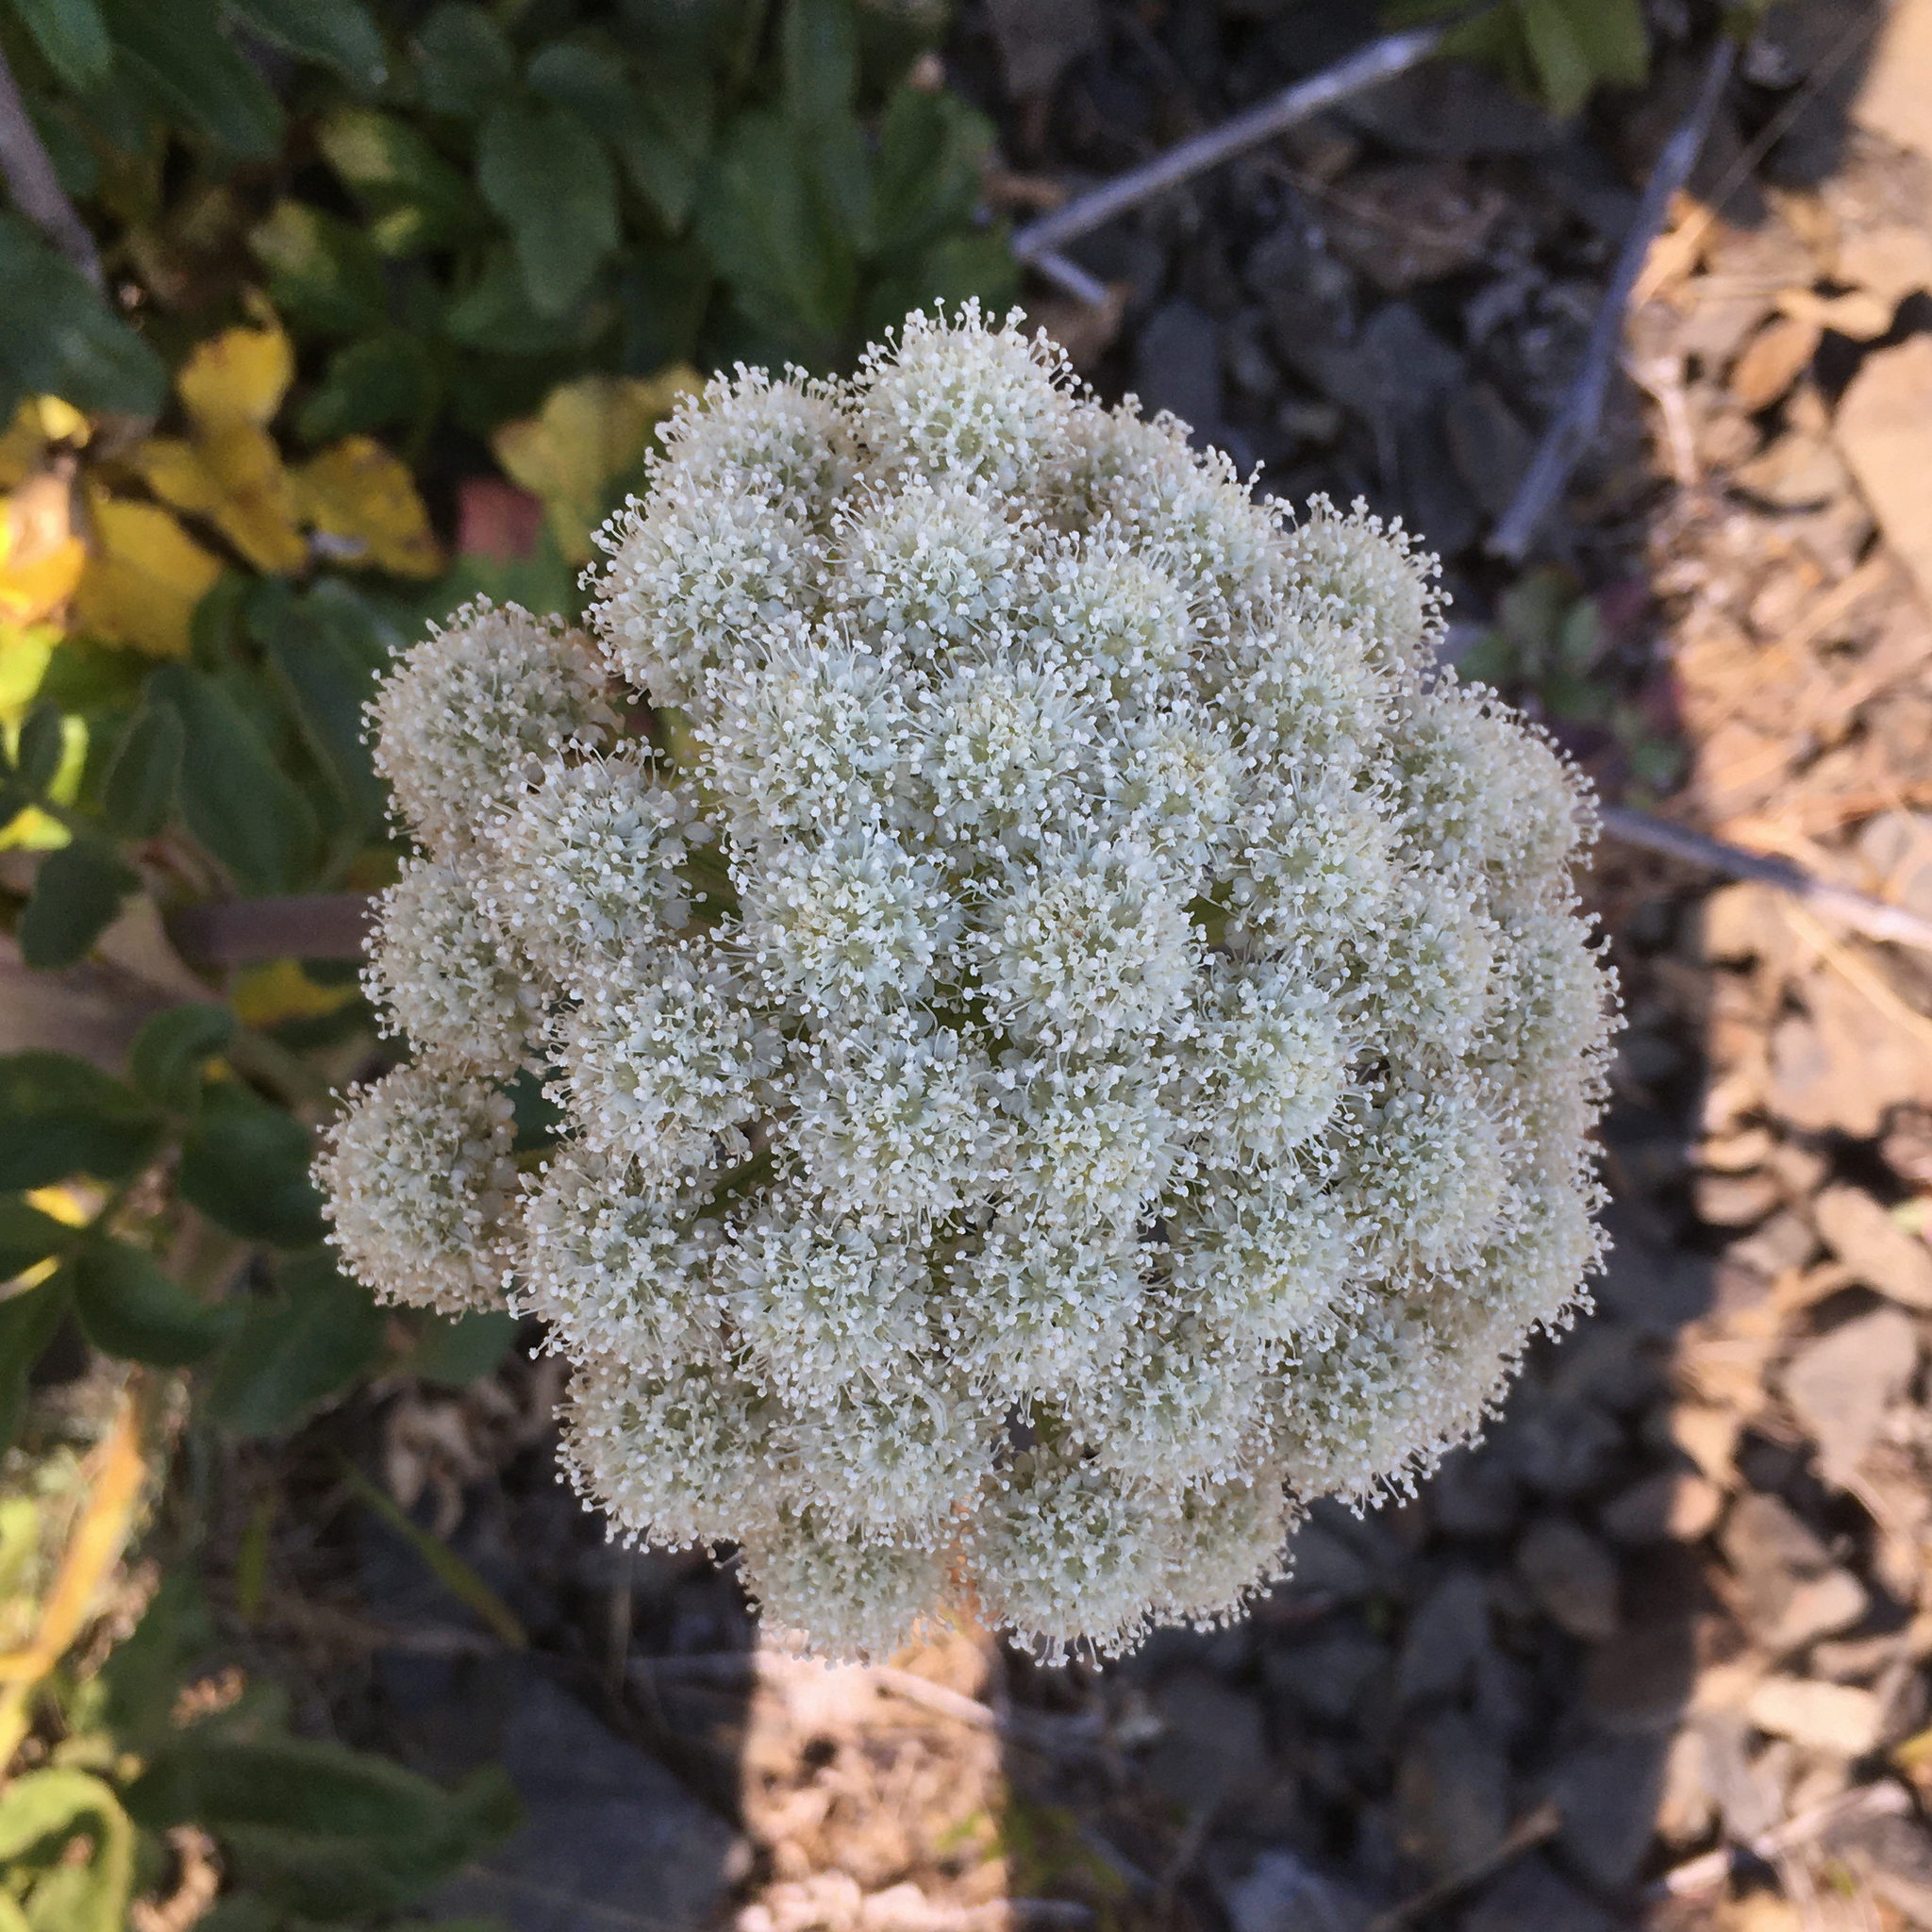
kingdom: Plantae
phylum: Tracheophyta
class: Magnoliopsida
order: Apiales
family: Apiaceae
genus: Angelica
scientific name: Angelica hendersonii
